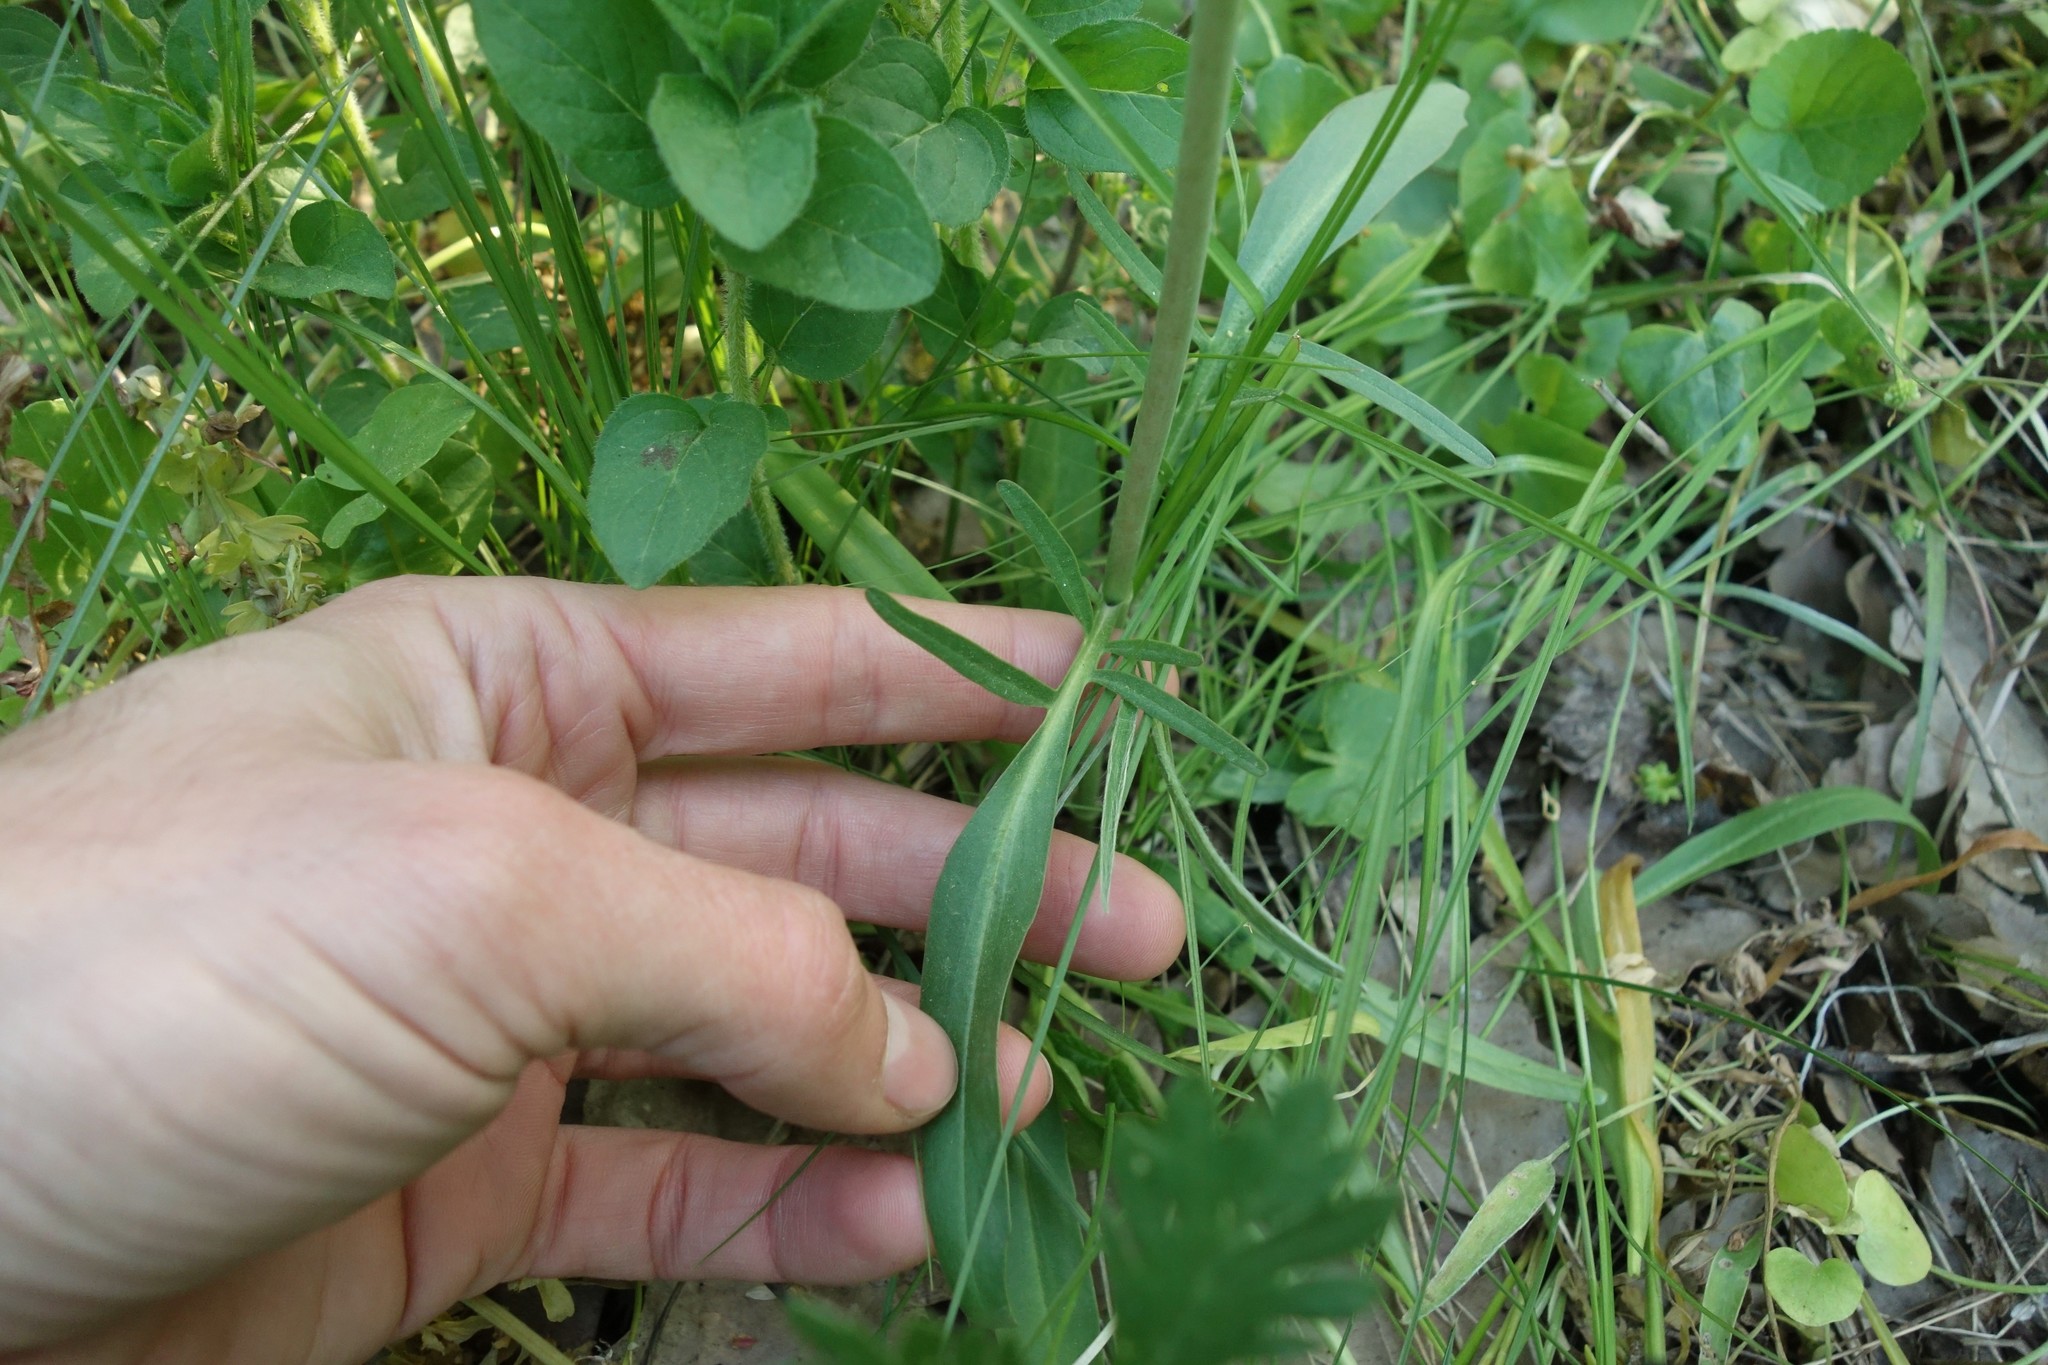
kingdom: Plantae
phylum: Tracheophyta
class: Magnoliopsida
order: Dipsacales
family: Caprifoliaceae
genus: Valeriana
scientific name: Valeriana tuberosa
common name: Tuberous valerian
